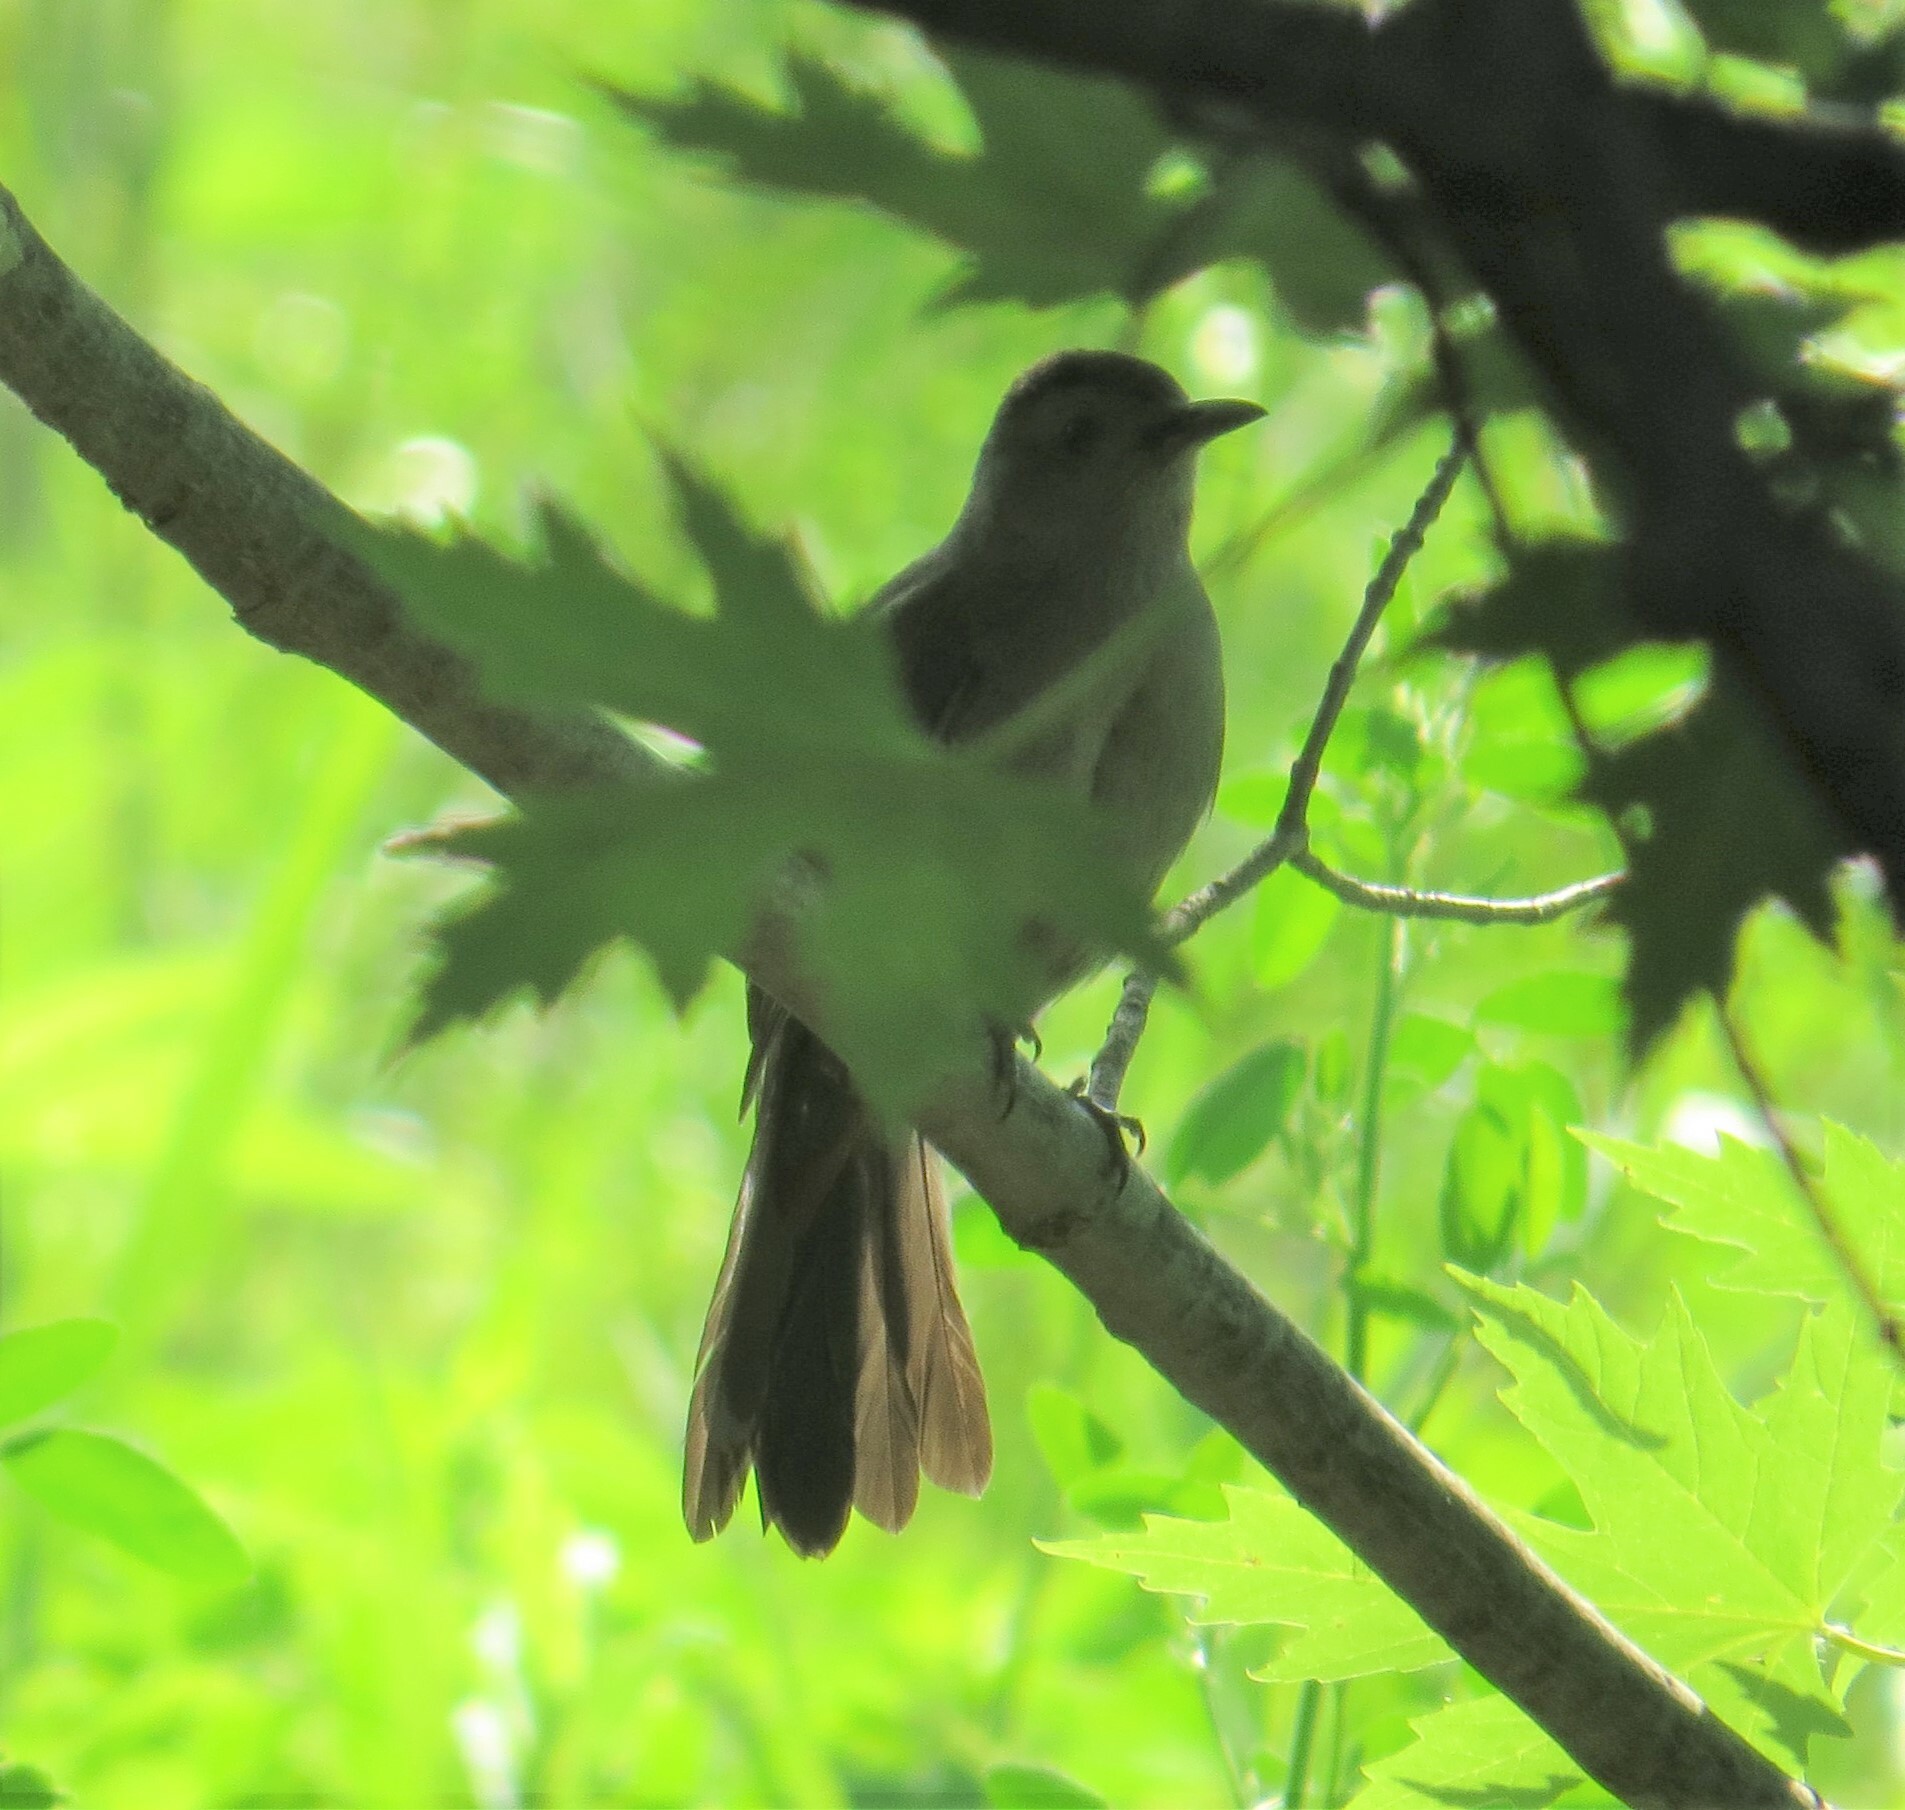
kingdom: Animalia
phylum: Chordata
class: Aves
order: Passeriformes
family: Mimidae
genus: Dumetella
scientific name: Dumetella carolinensis
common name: Gray catbird
